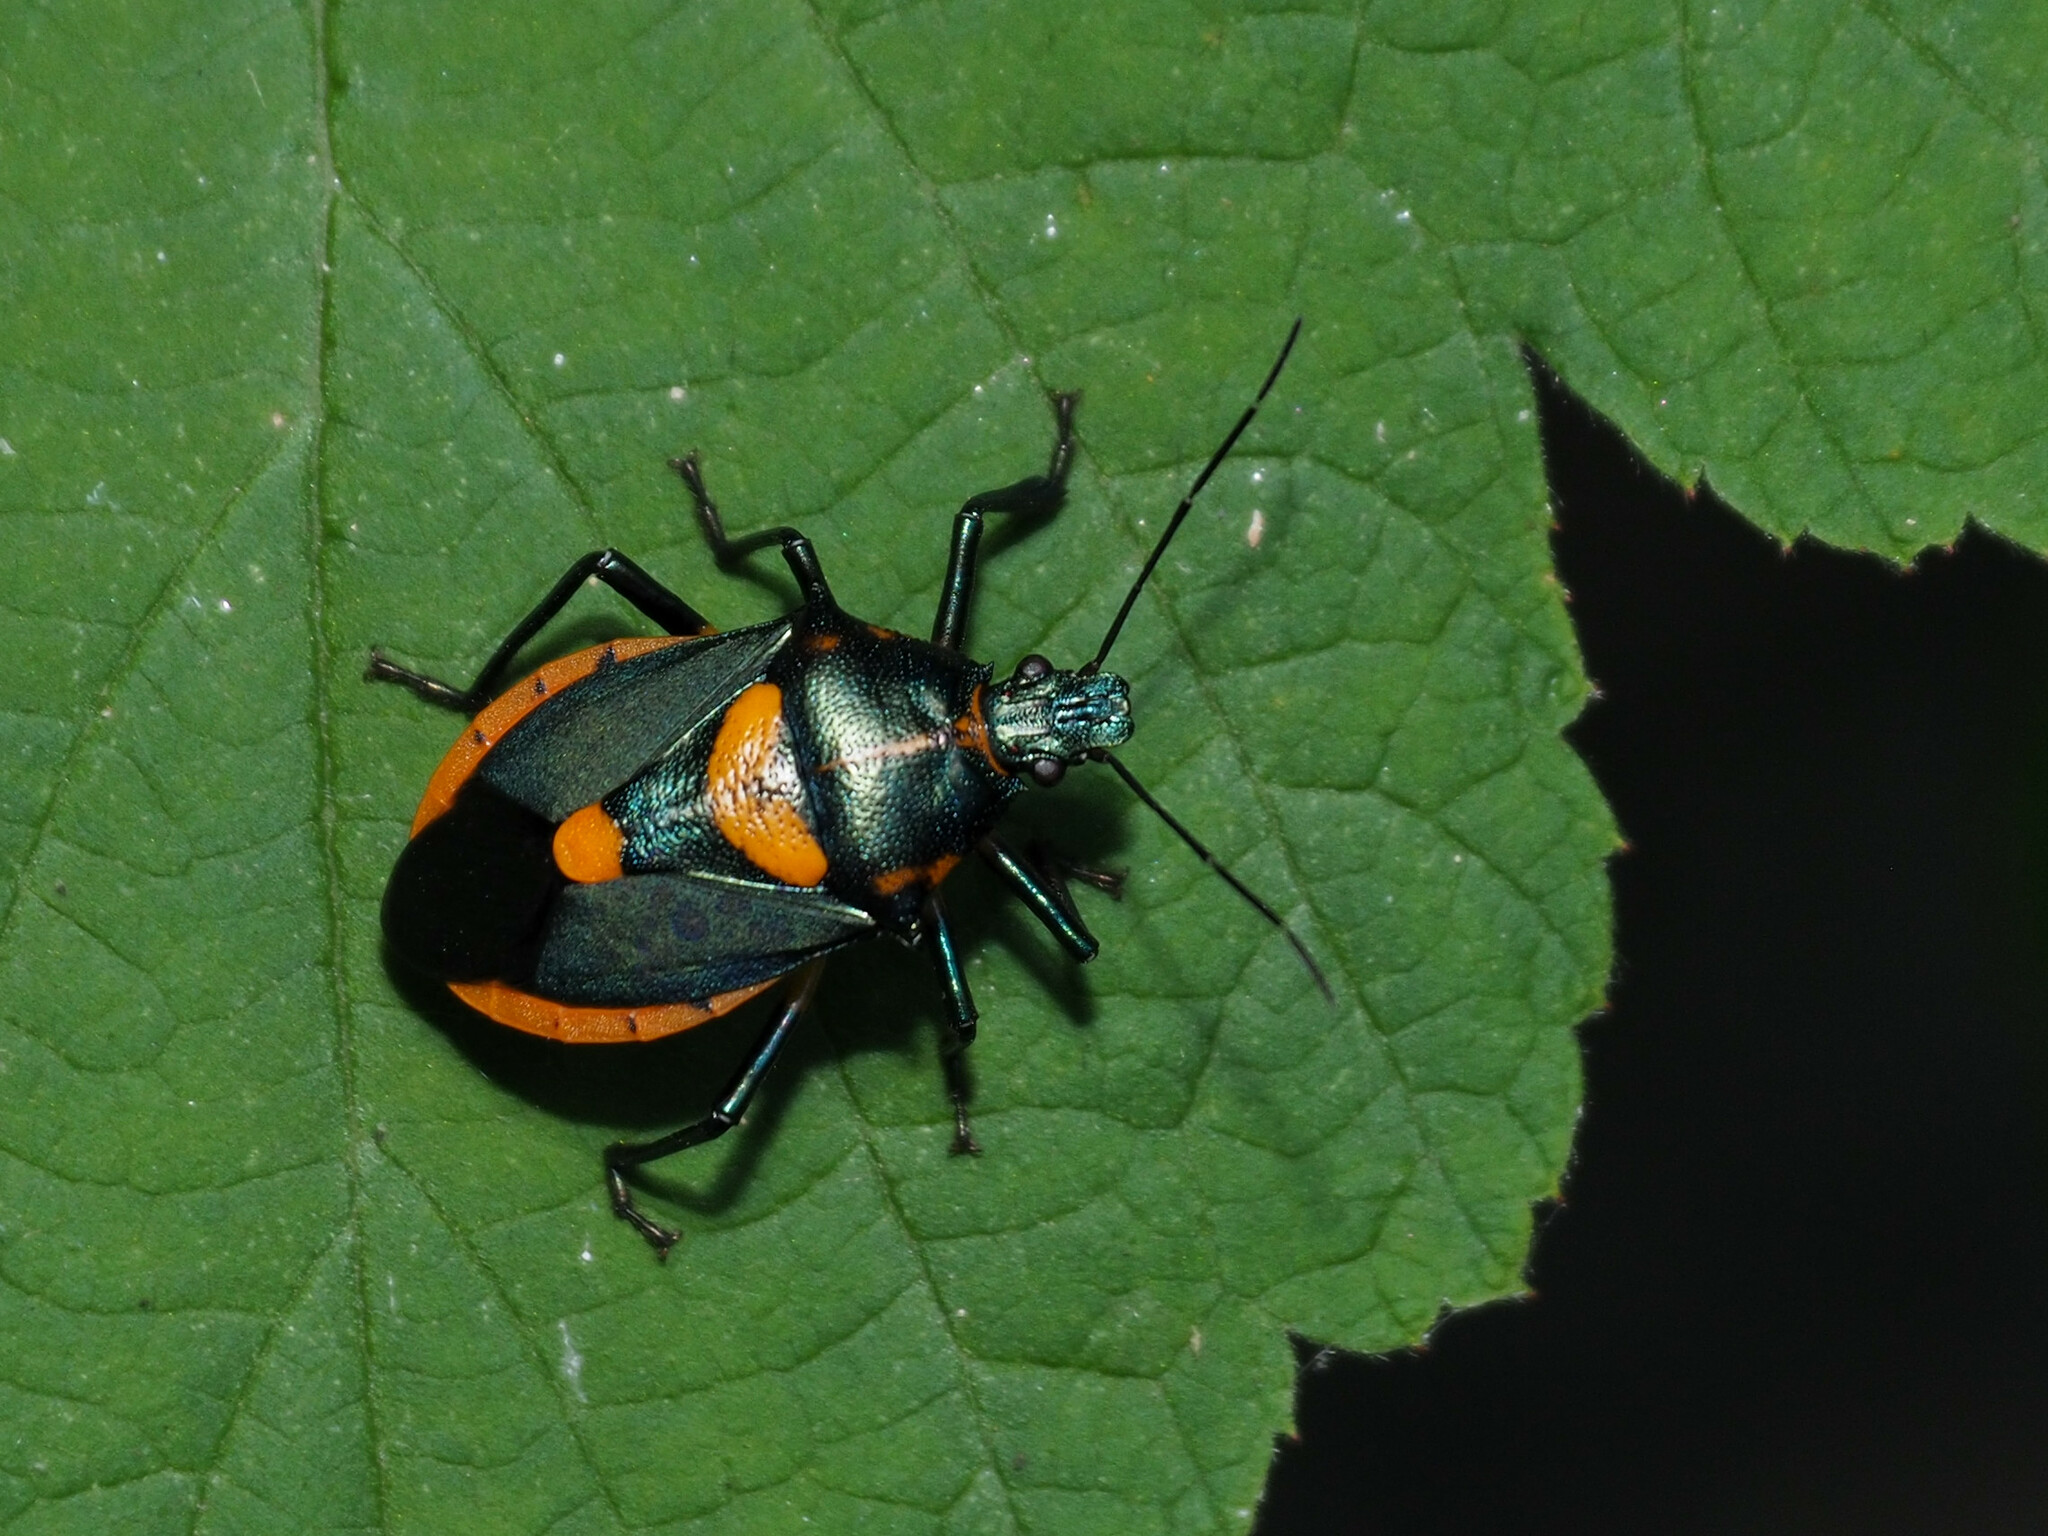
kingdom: Animalia
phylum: Arthropoda
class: Insecta
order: Hemiptera
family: Pentatomidae
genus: Euthyrhynchus
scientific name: Euthyrhynchus floridanus
